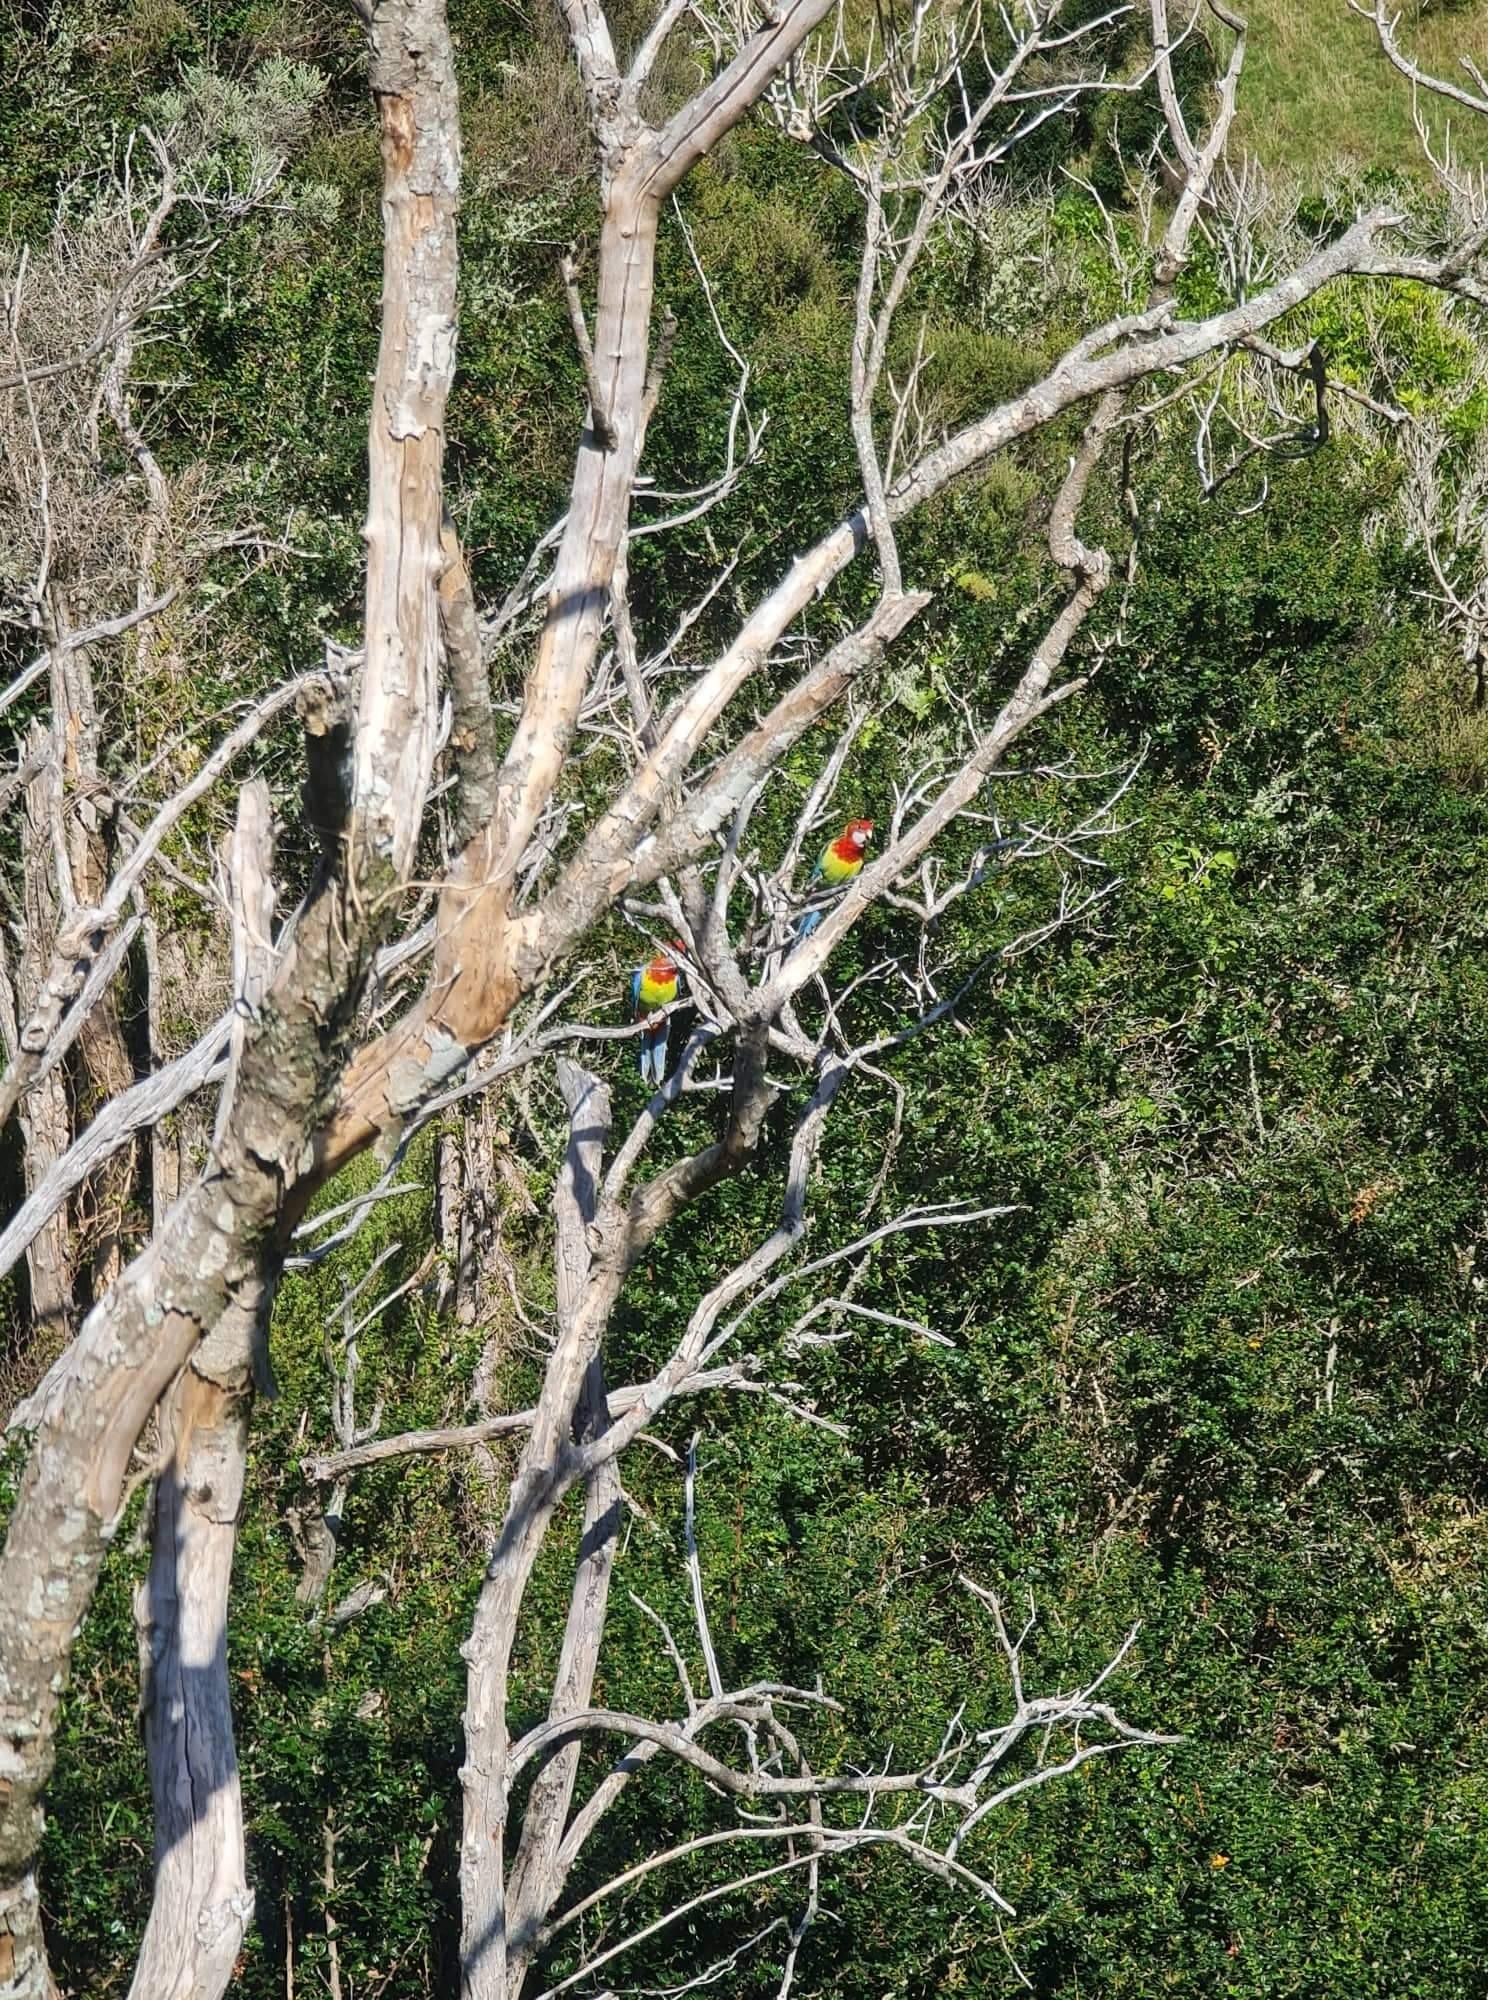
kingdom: Animalia
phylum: Chordata
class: Aves
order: Psittaciformes
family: Psittacidae
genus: Platycercus
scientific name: Platycercus eximius
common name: Eastern rosella
